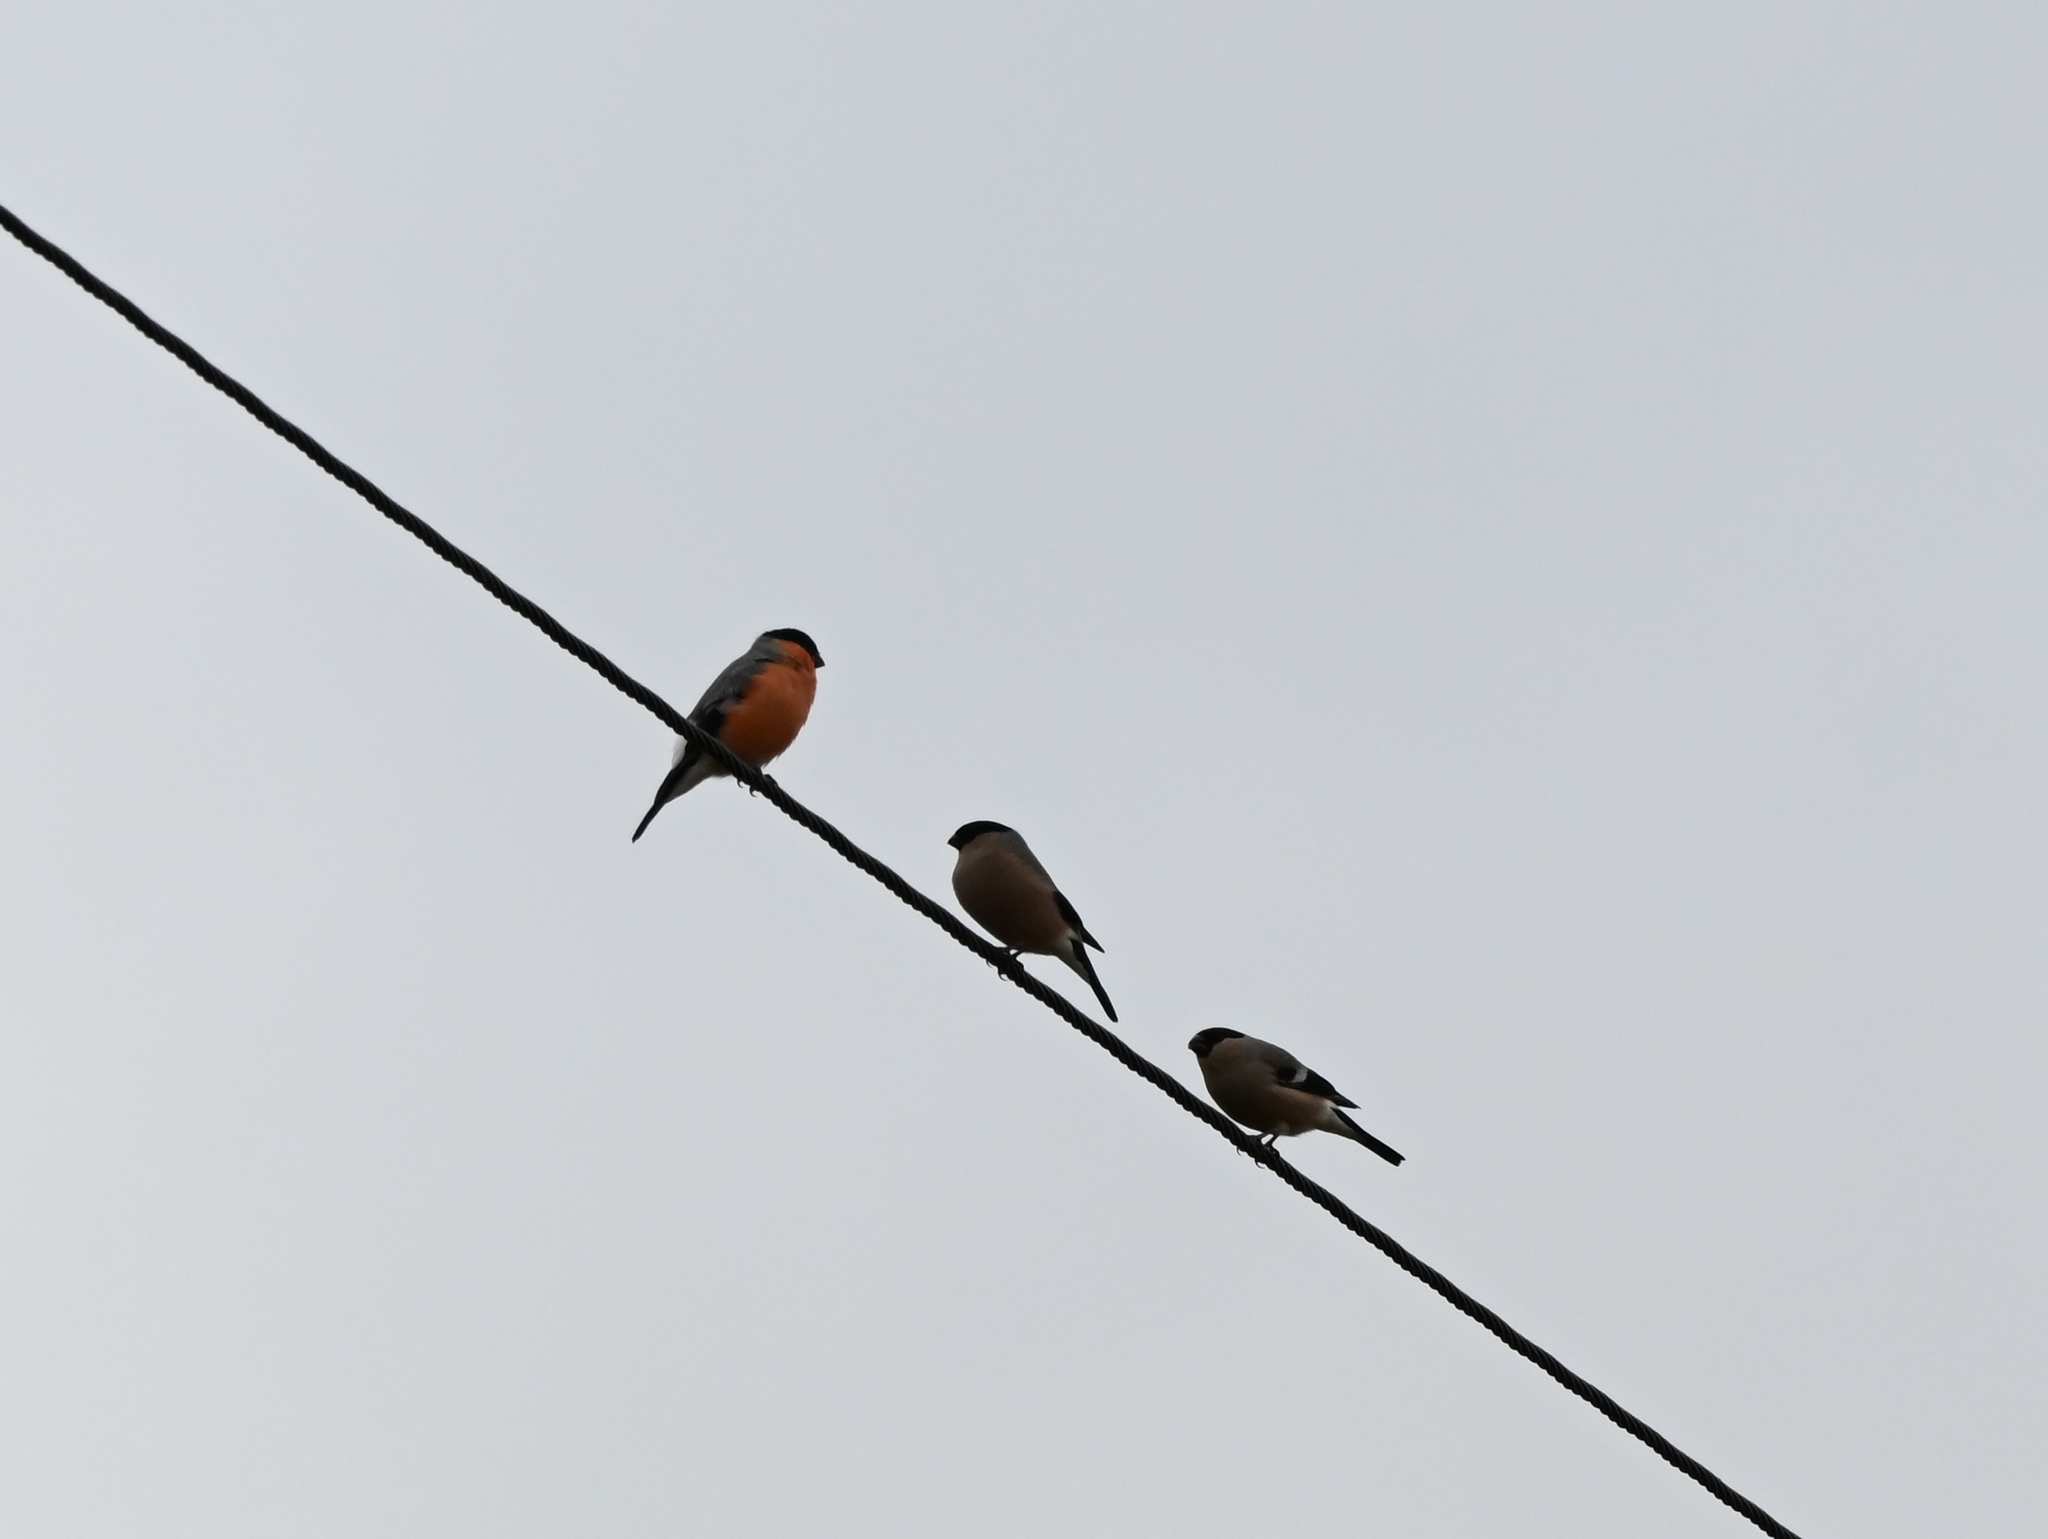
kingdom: Animalia
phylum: Chordata
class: Aves
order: Passeriformes
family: Fringillidae
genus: Pyrrhula
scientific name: Pyrrhula pyrrhula
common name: Eurasian bullfinch
